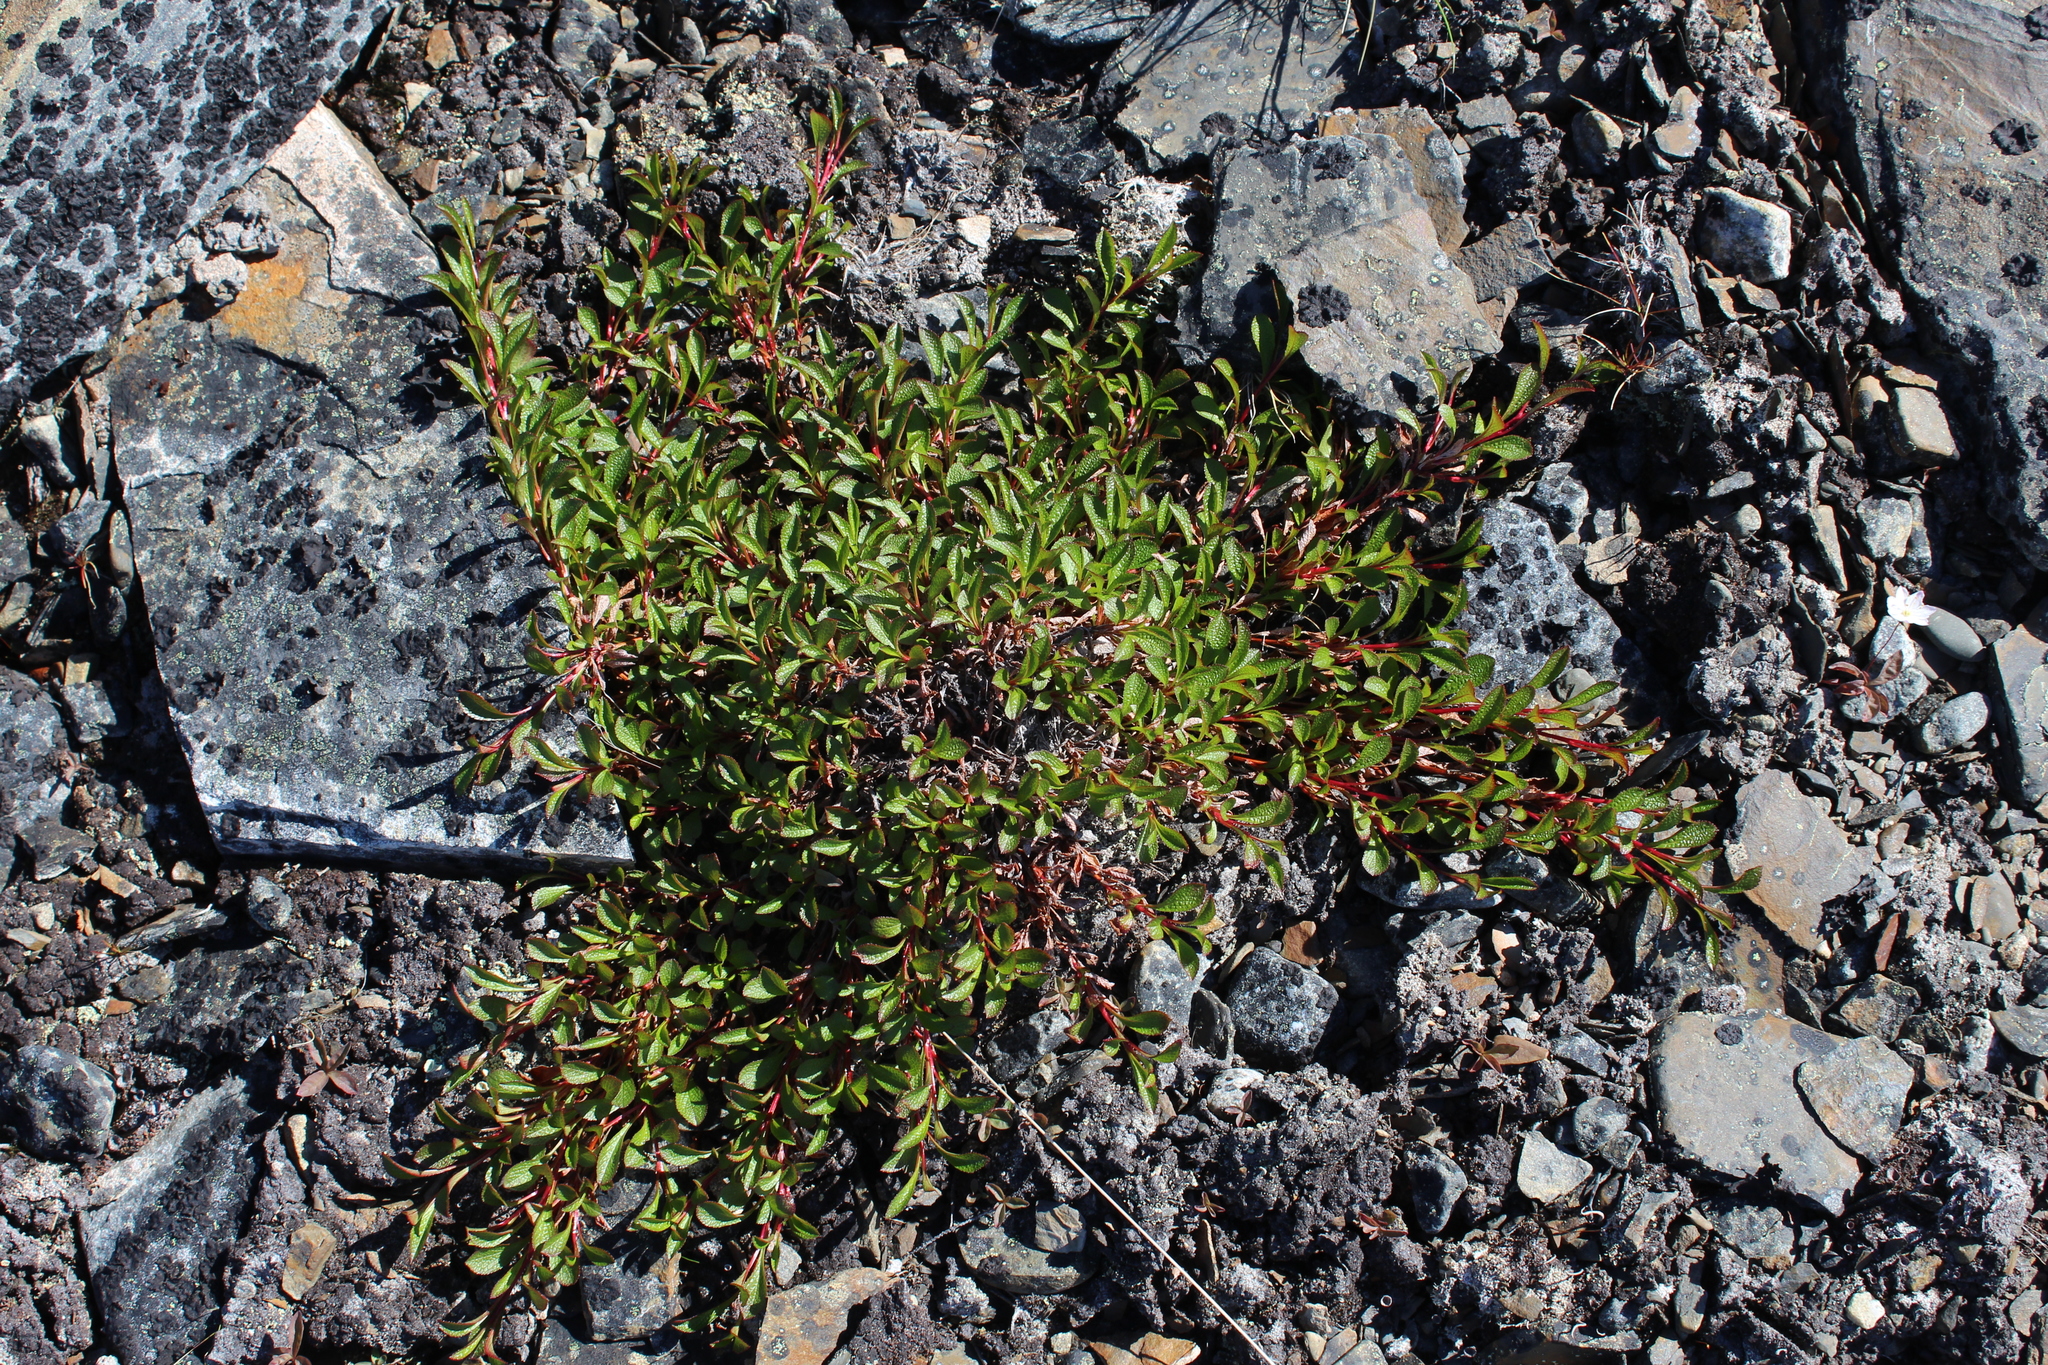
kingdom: Plantae
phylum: Tracheophyta
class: Magnoliopsida
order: Ericales
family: Ericaceae
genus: Arctostaphylos
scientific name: Arctostaphylos alpinus
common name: Alpine bearberry
